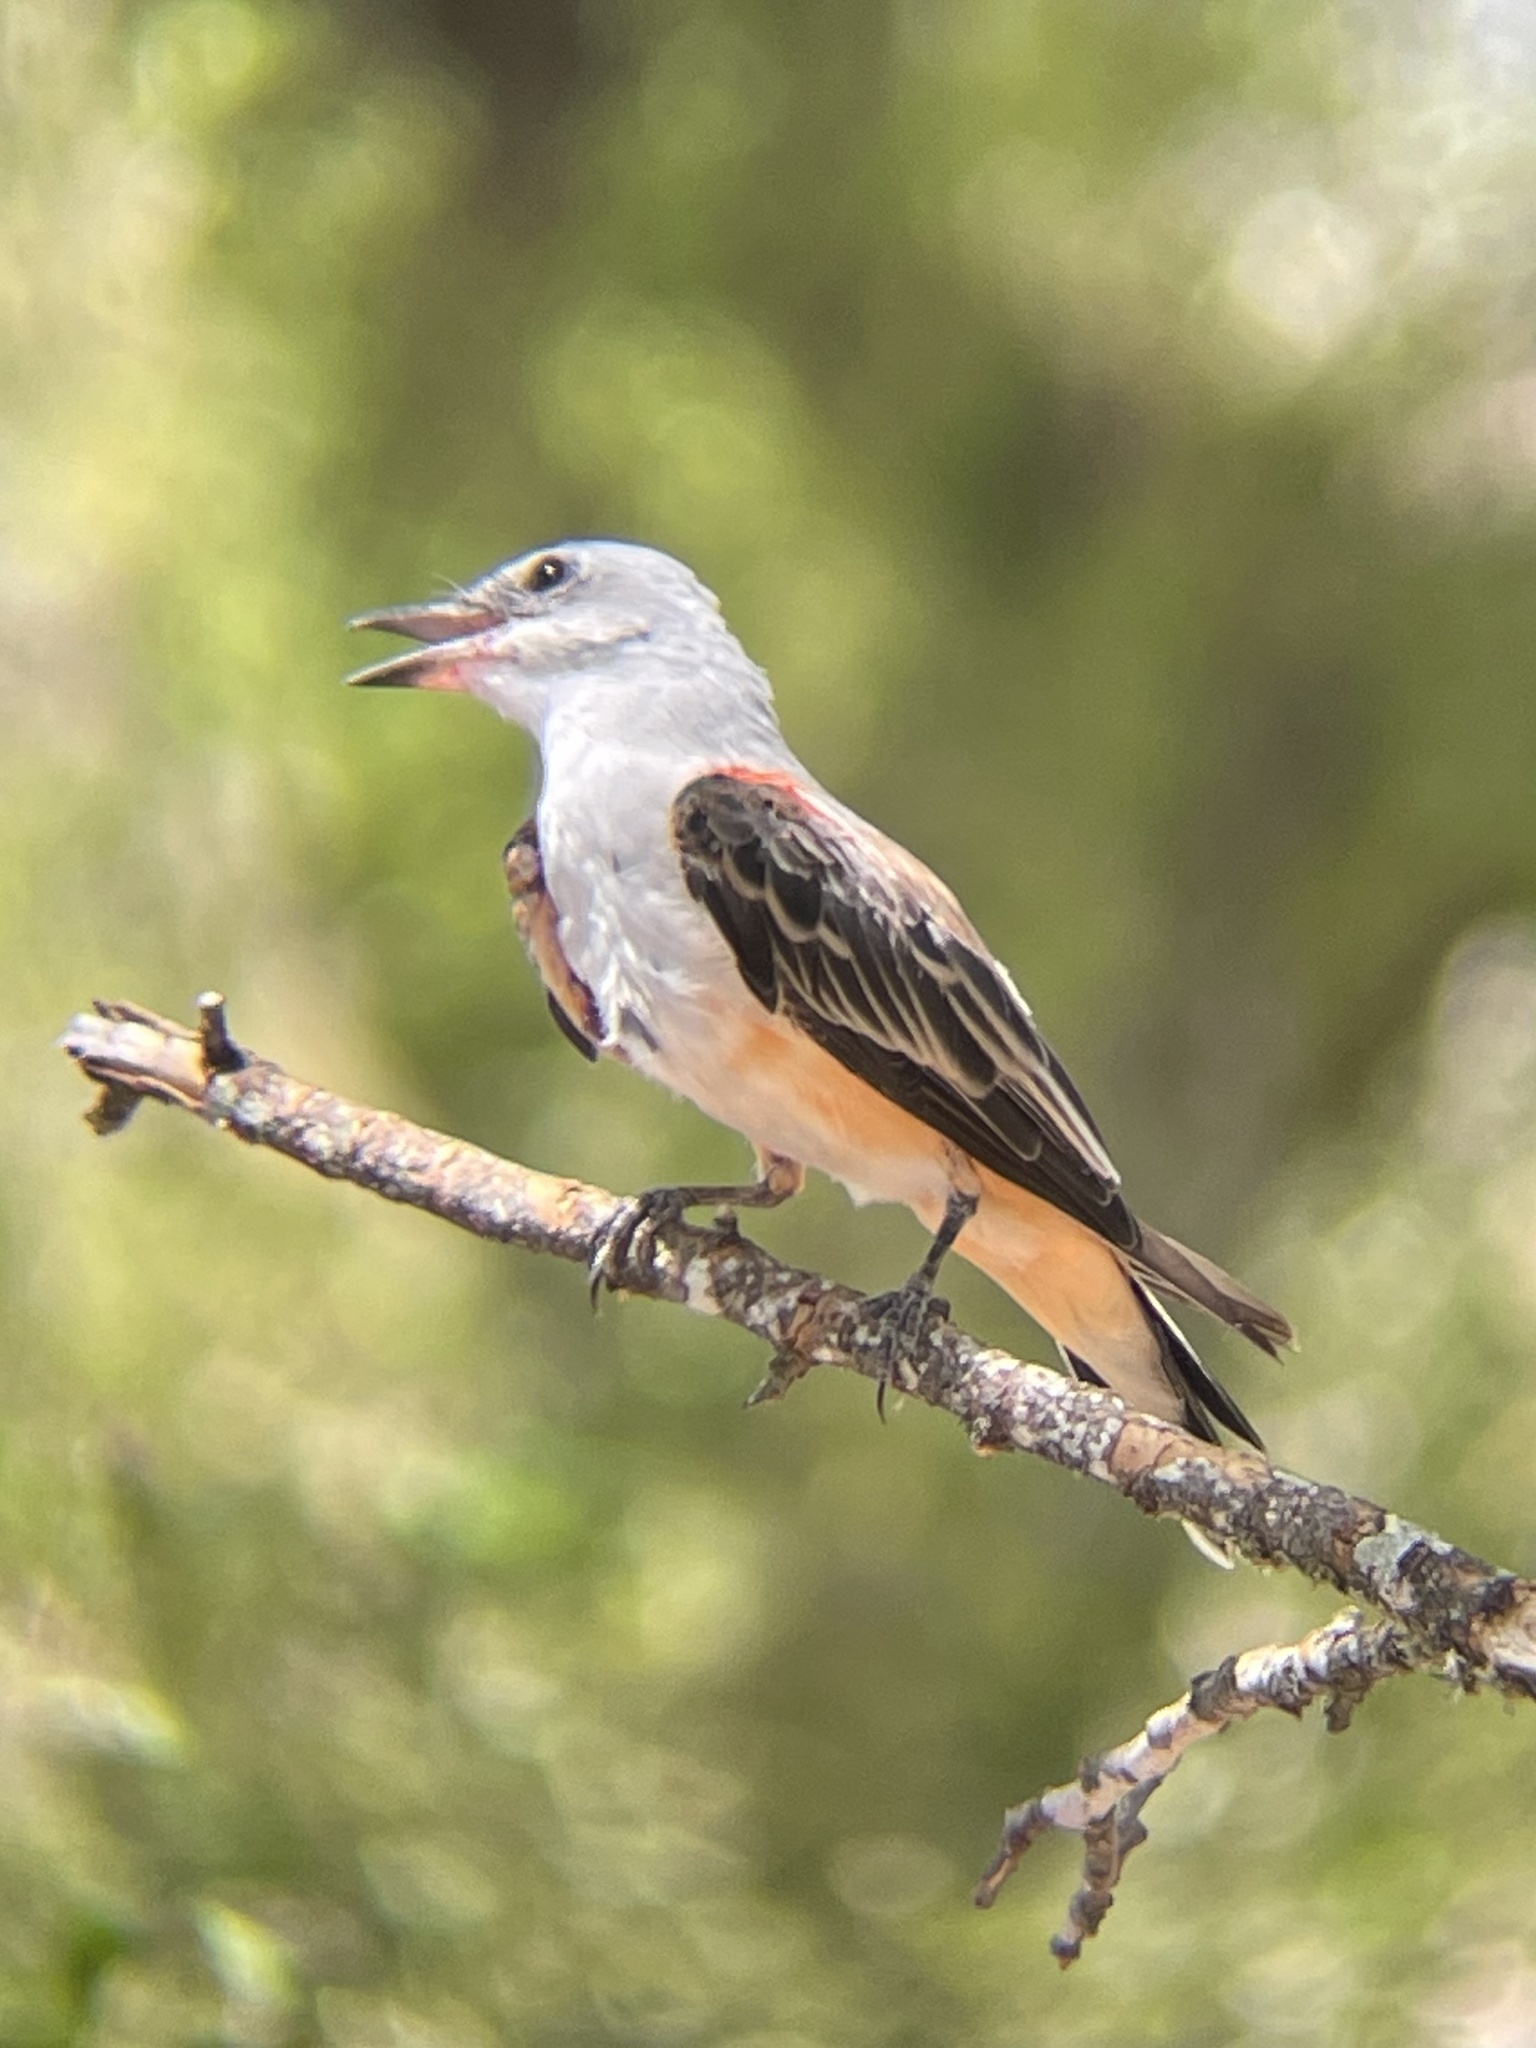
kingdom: Animalia
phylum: Chordata
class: Aves
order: Passeriformes
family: Tyrannidae
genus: Tyrannus
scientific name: Tyrannus forficatus
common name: Scissor-tailed flycatcher
